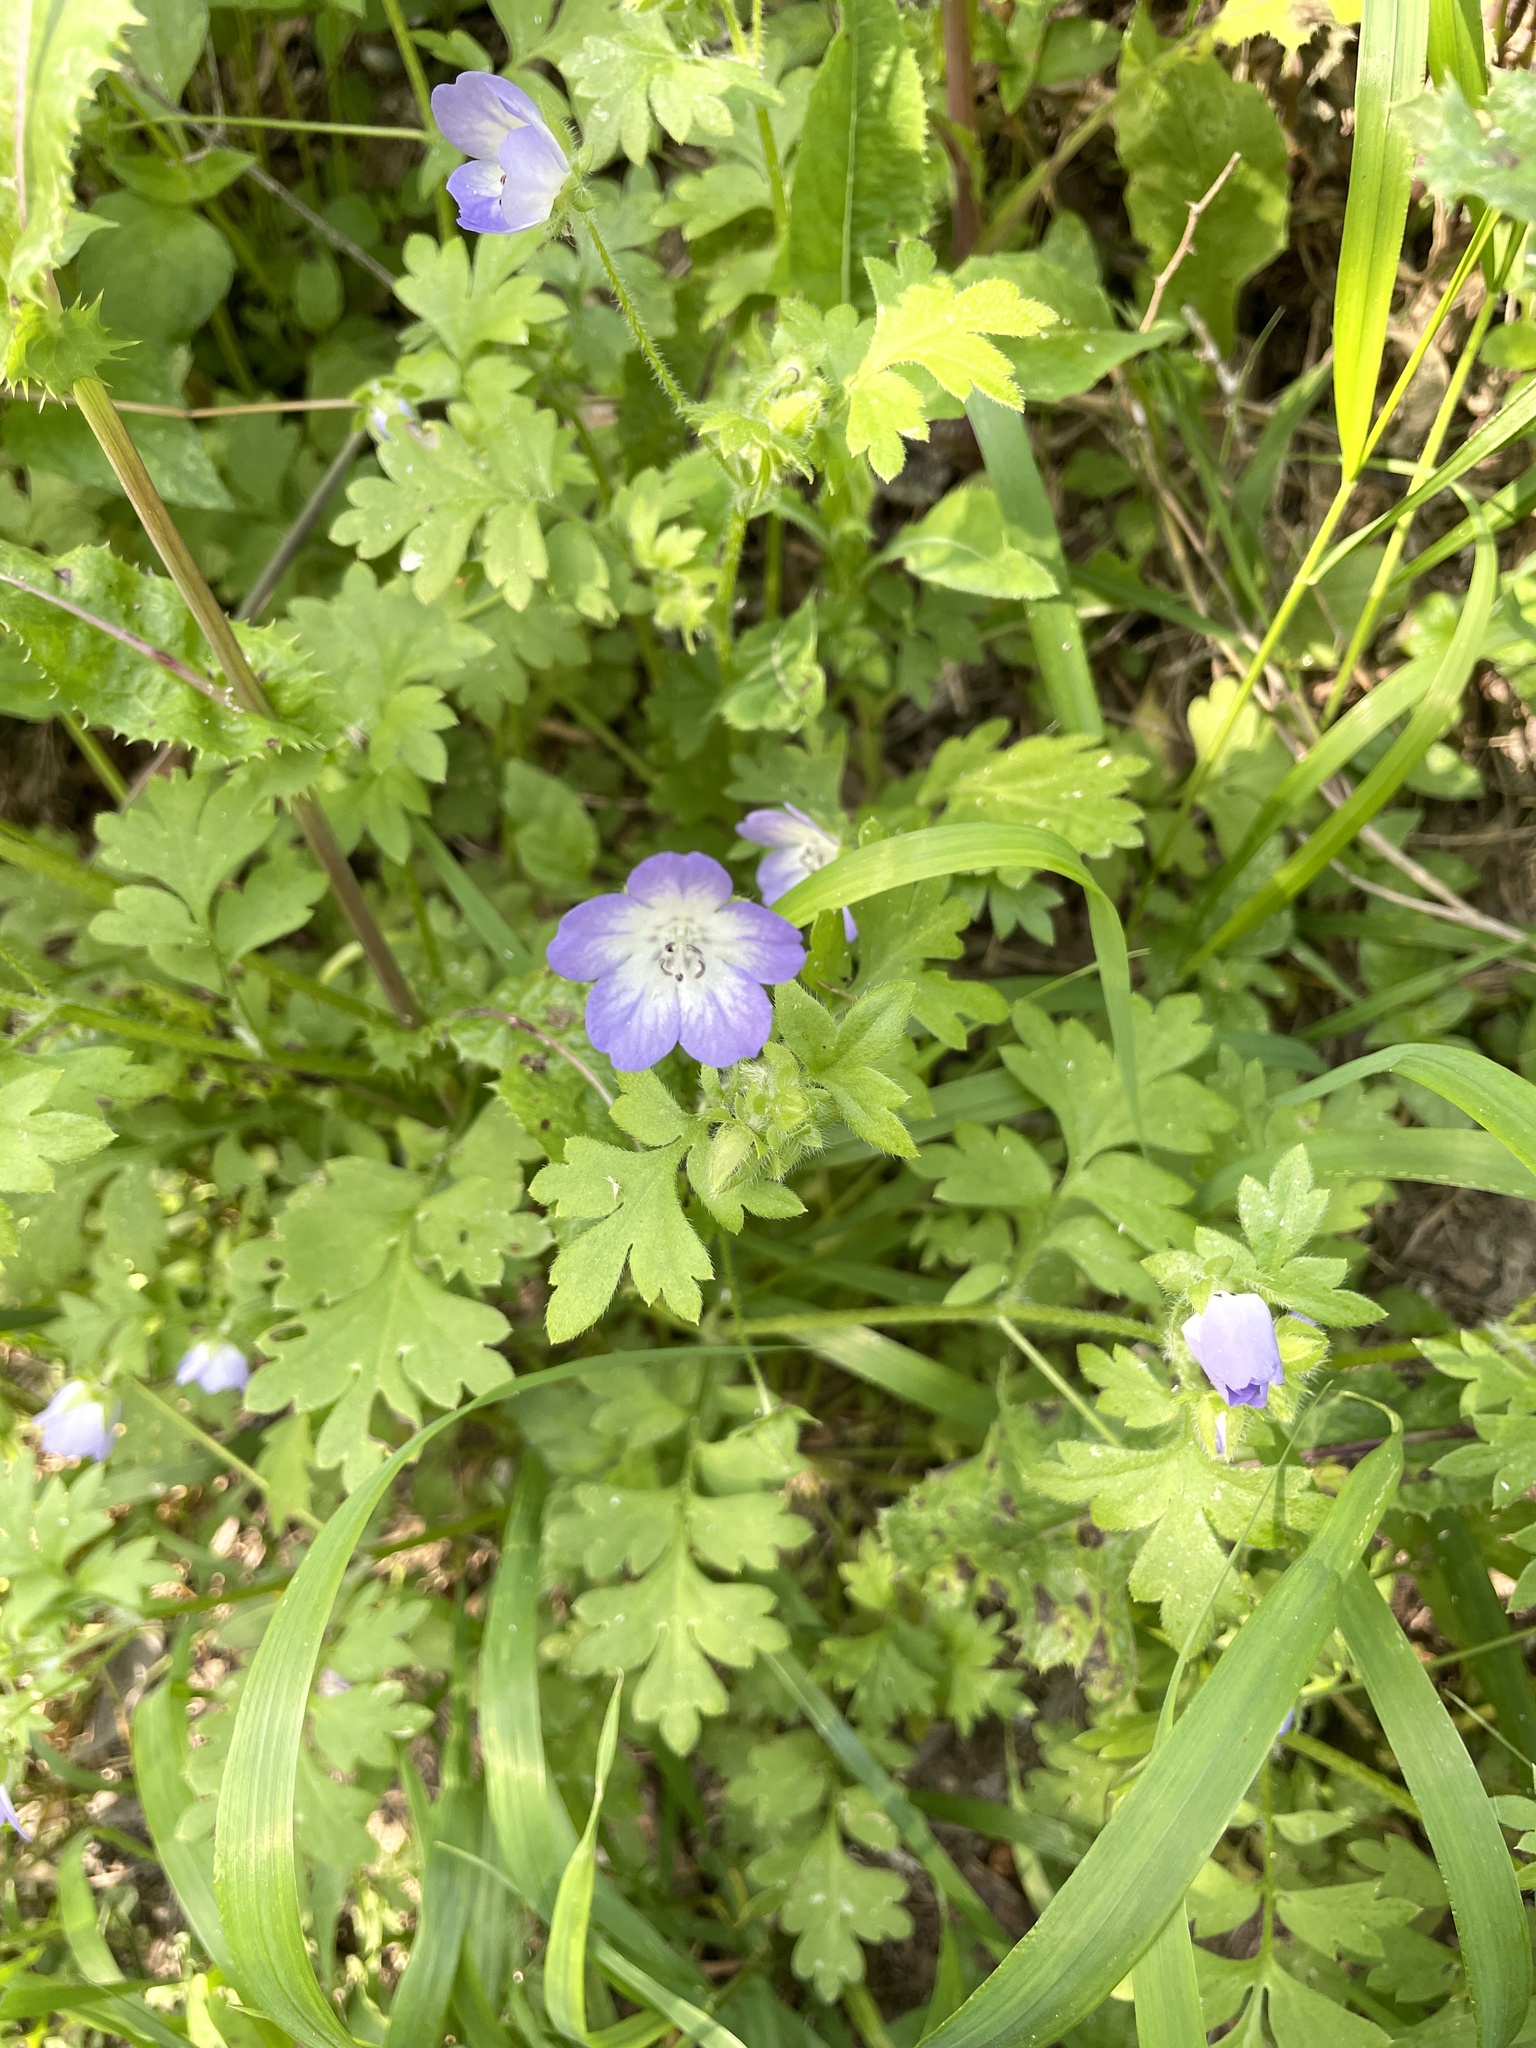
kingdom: Plantae
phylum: Tracheophyta
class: Magnoliopsida
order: Boraginales
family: Hydrophyllaceae
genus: Nemophila
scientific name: Nemophila phacelioides
